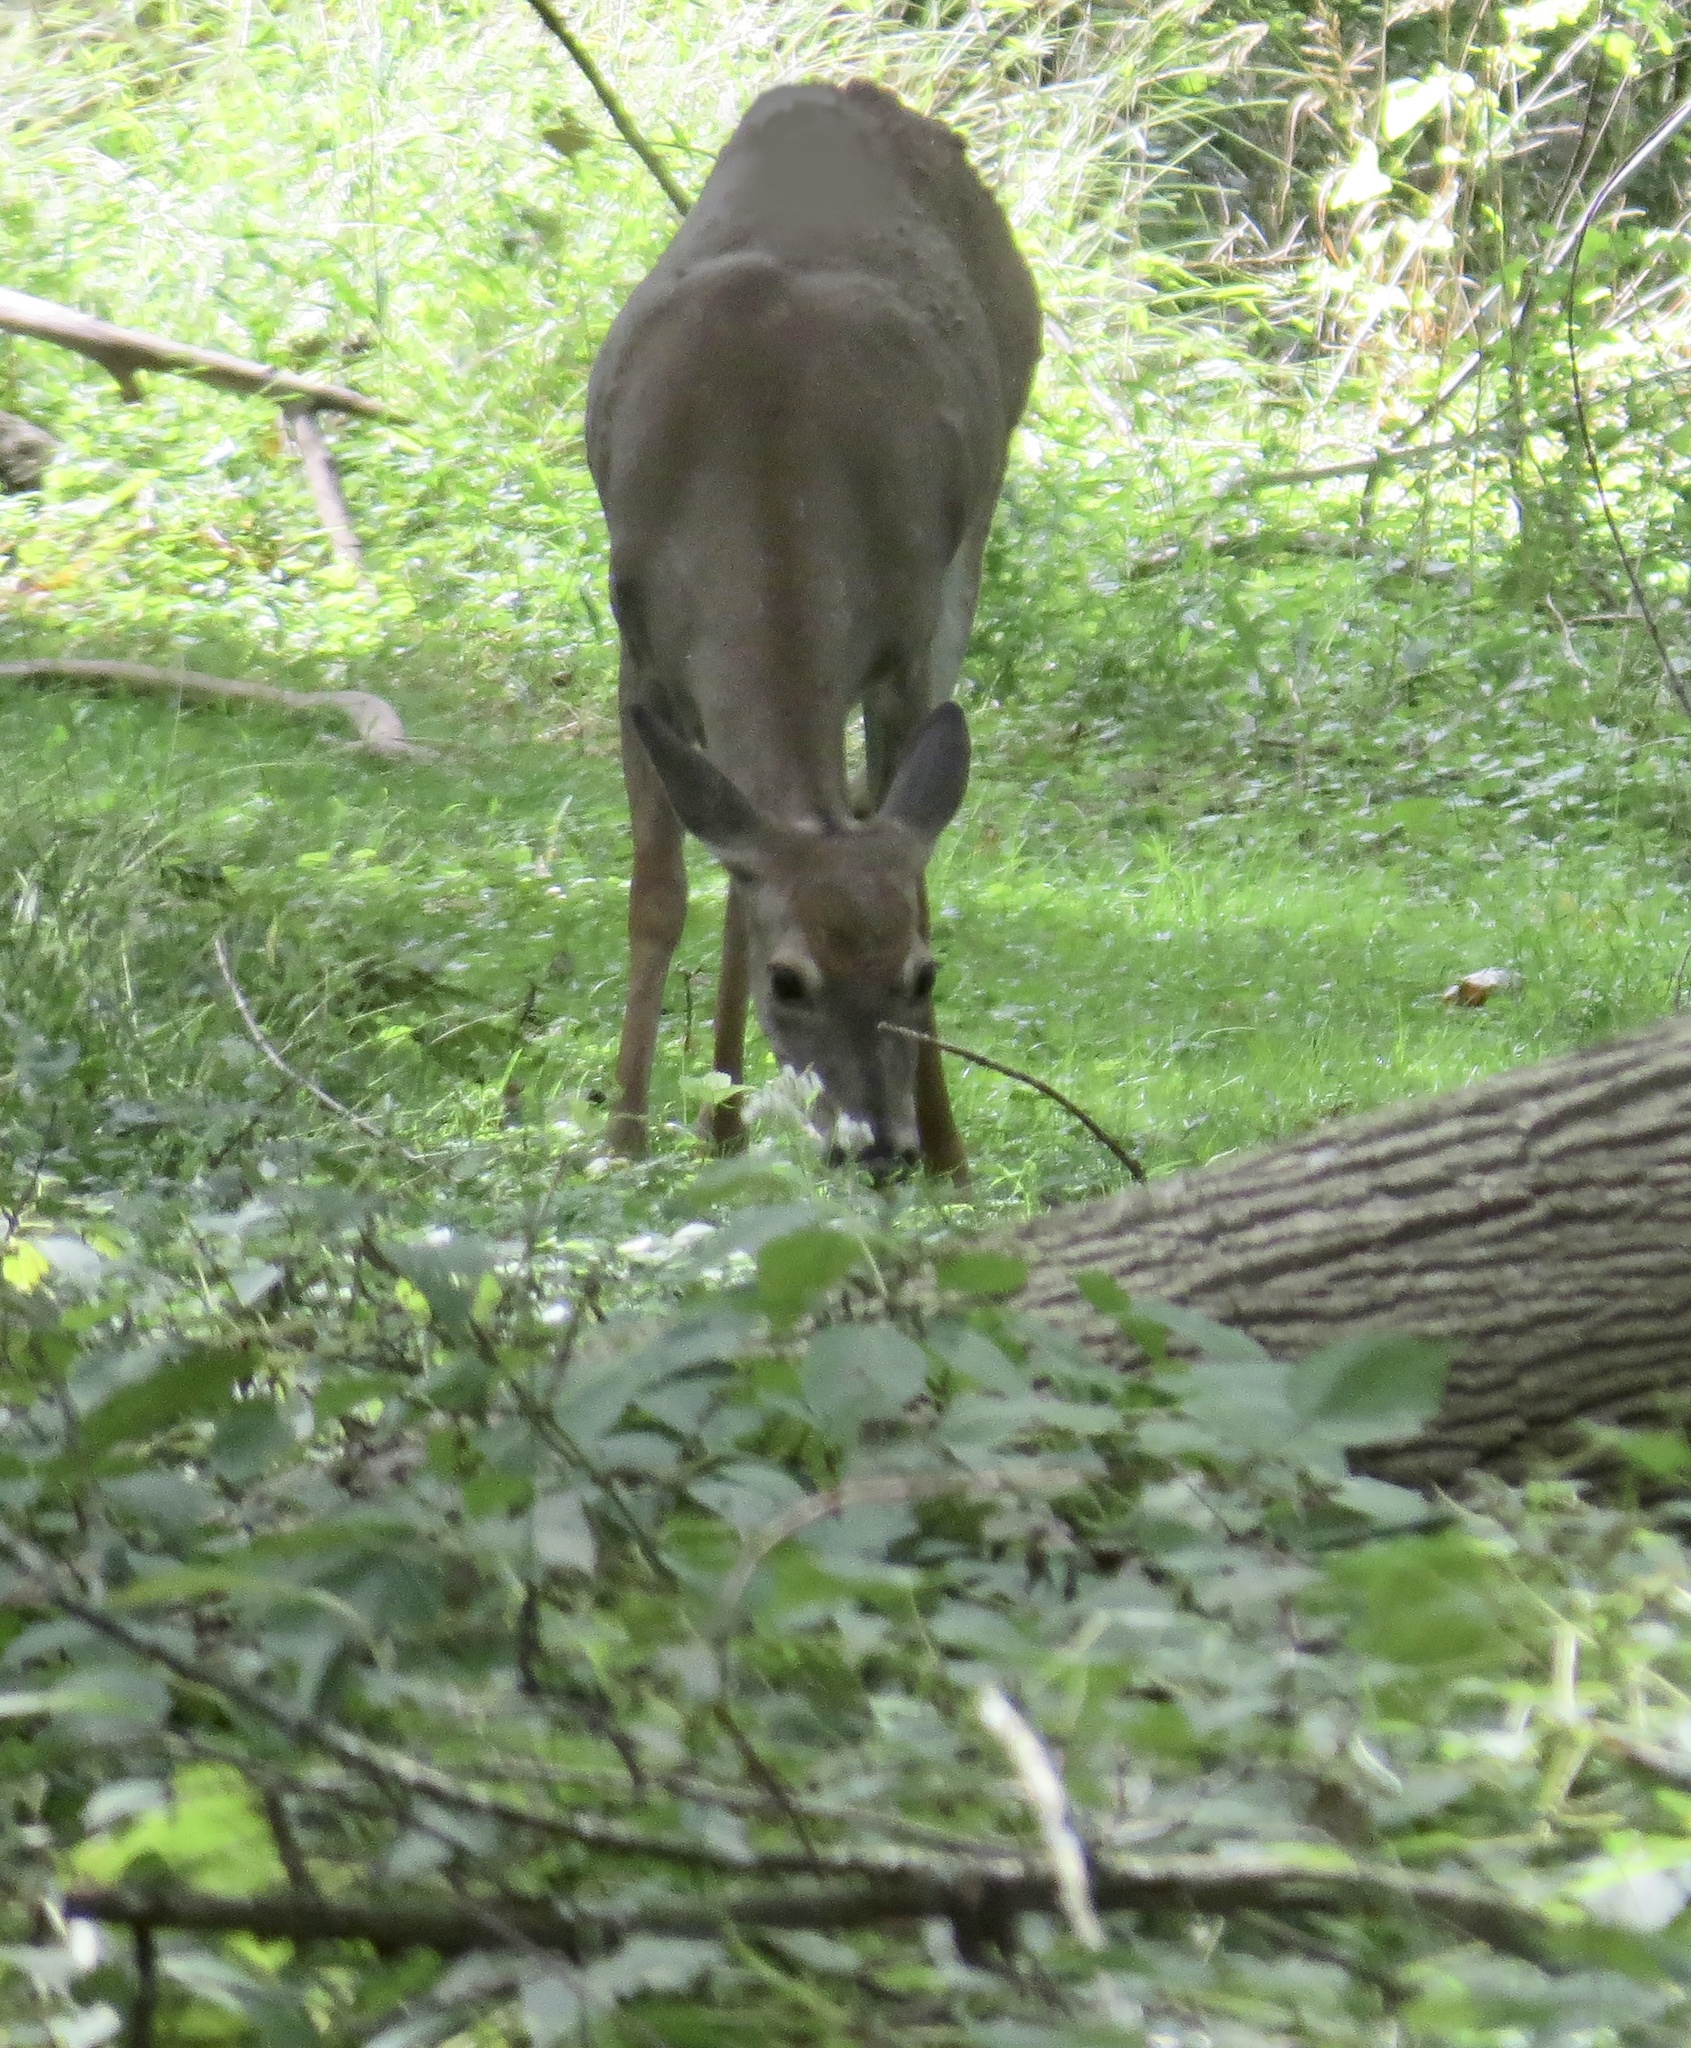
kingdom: Animalia
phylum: Chordata
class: Mammalia
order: Artiodactyla
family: Cervidae
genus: Odocoileus
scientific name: Odocoileus virginianus
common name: White-tailed deer
